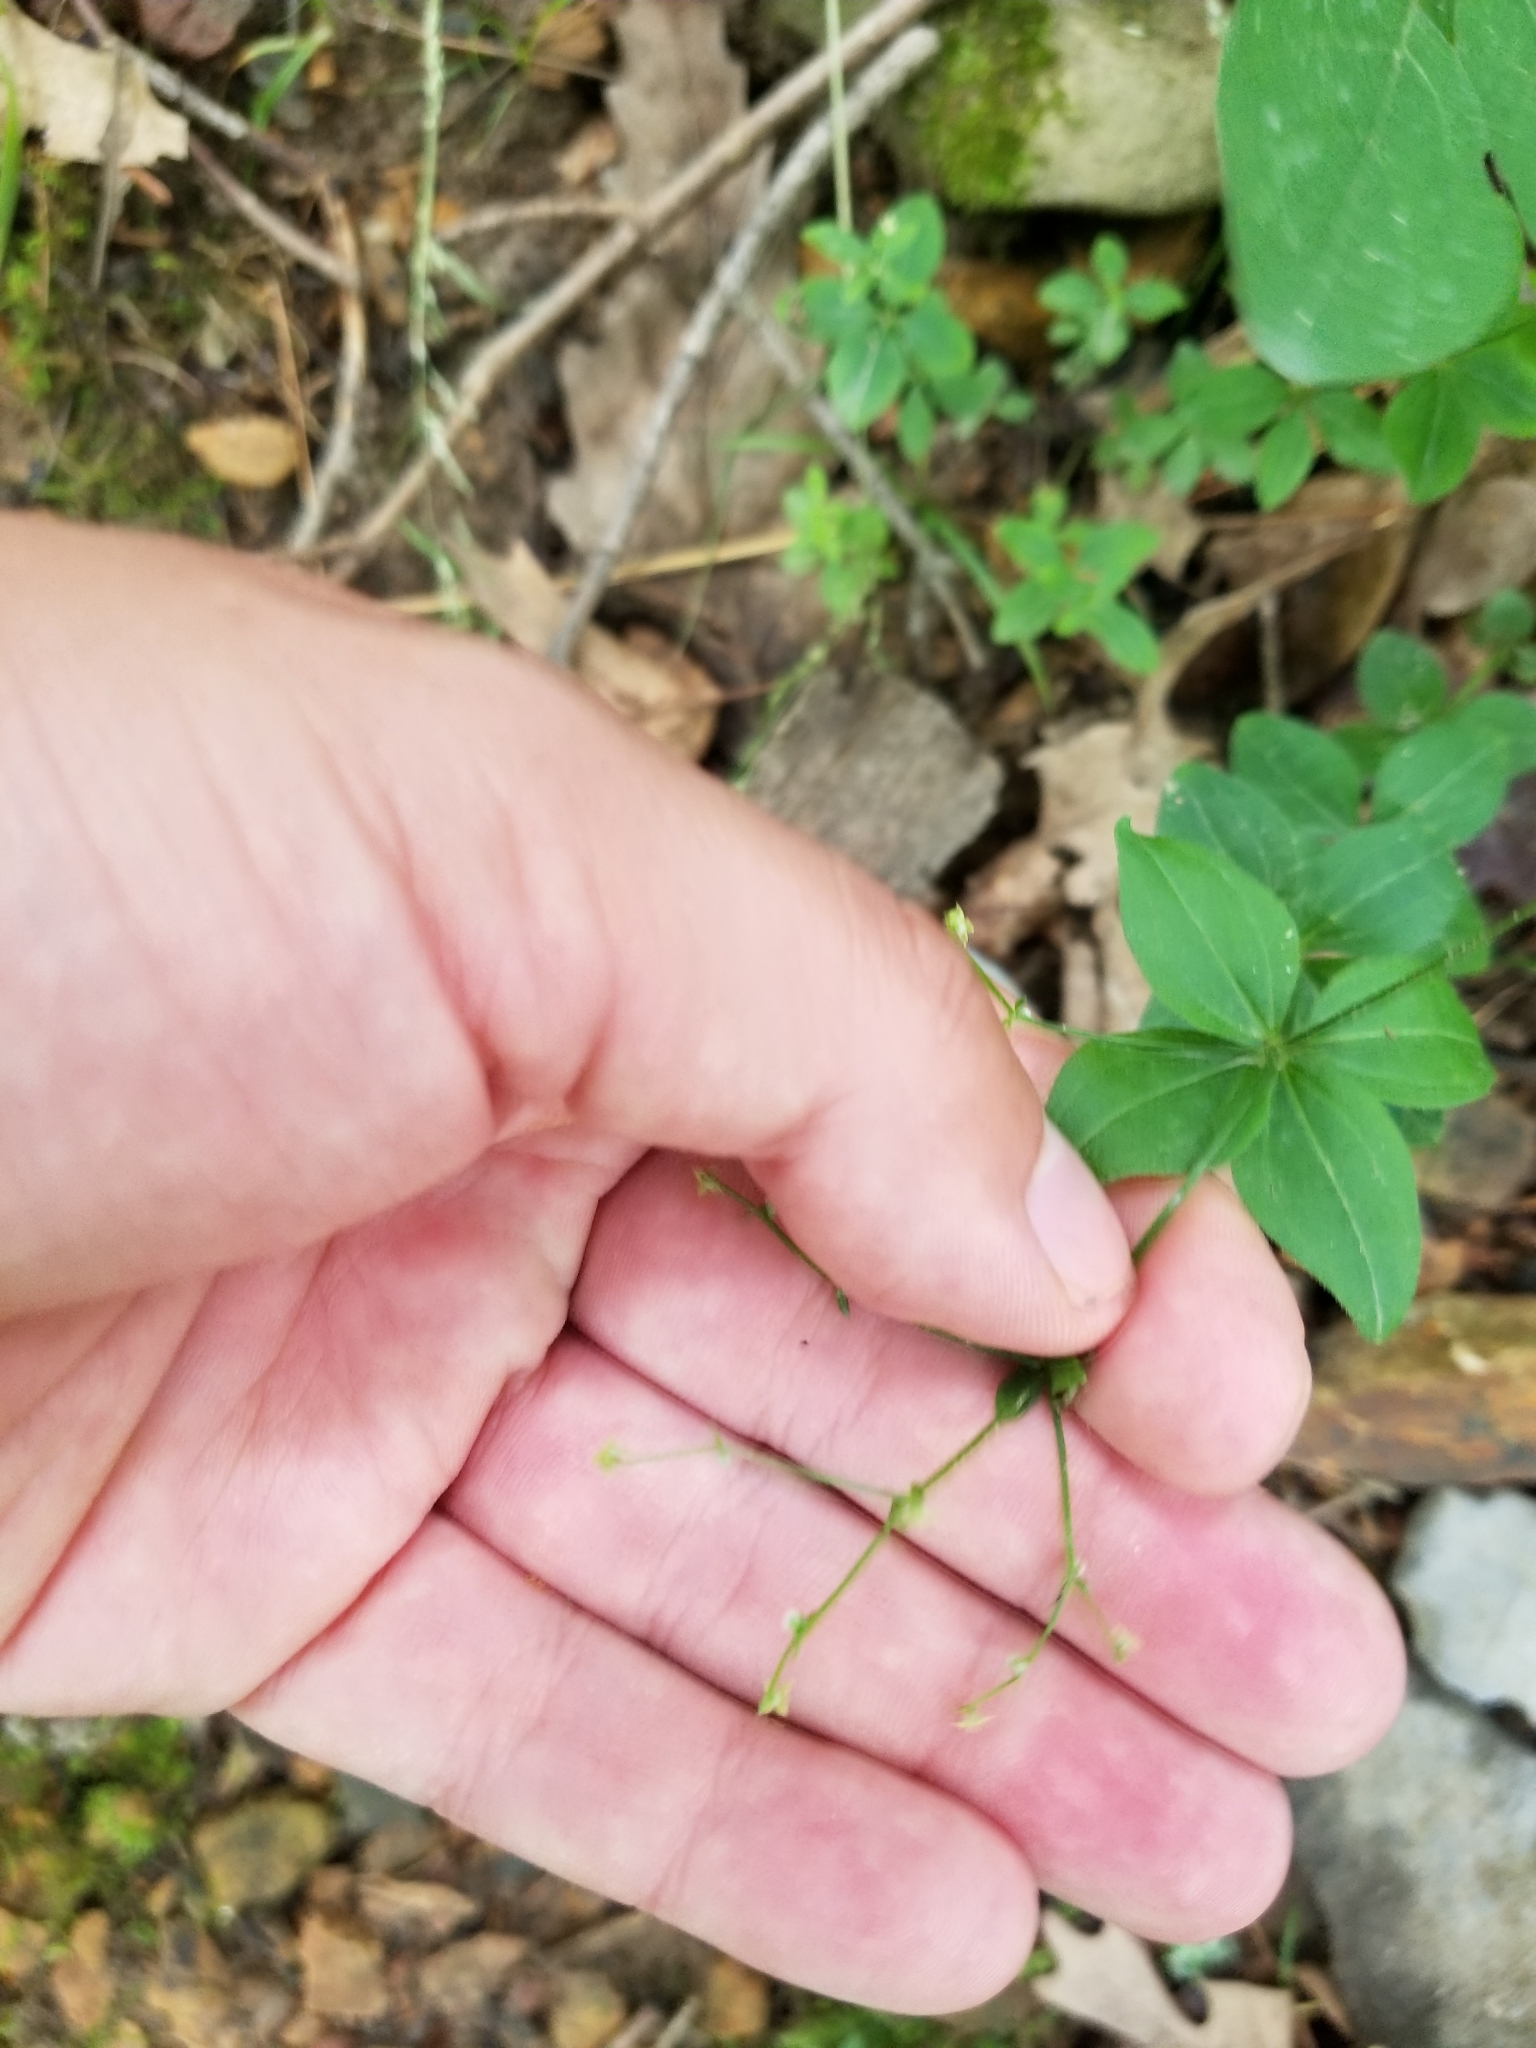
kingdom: Plantae
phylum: Tracheophyta
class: Magnoliopsida
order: Gentianales
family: Rubiaceae
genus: Galium
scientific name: Galium circaezans
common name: Forest bedstraw
